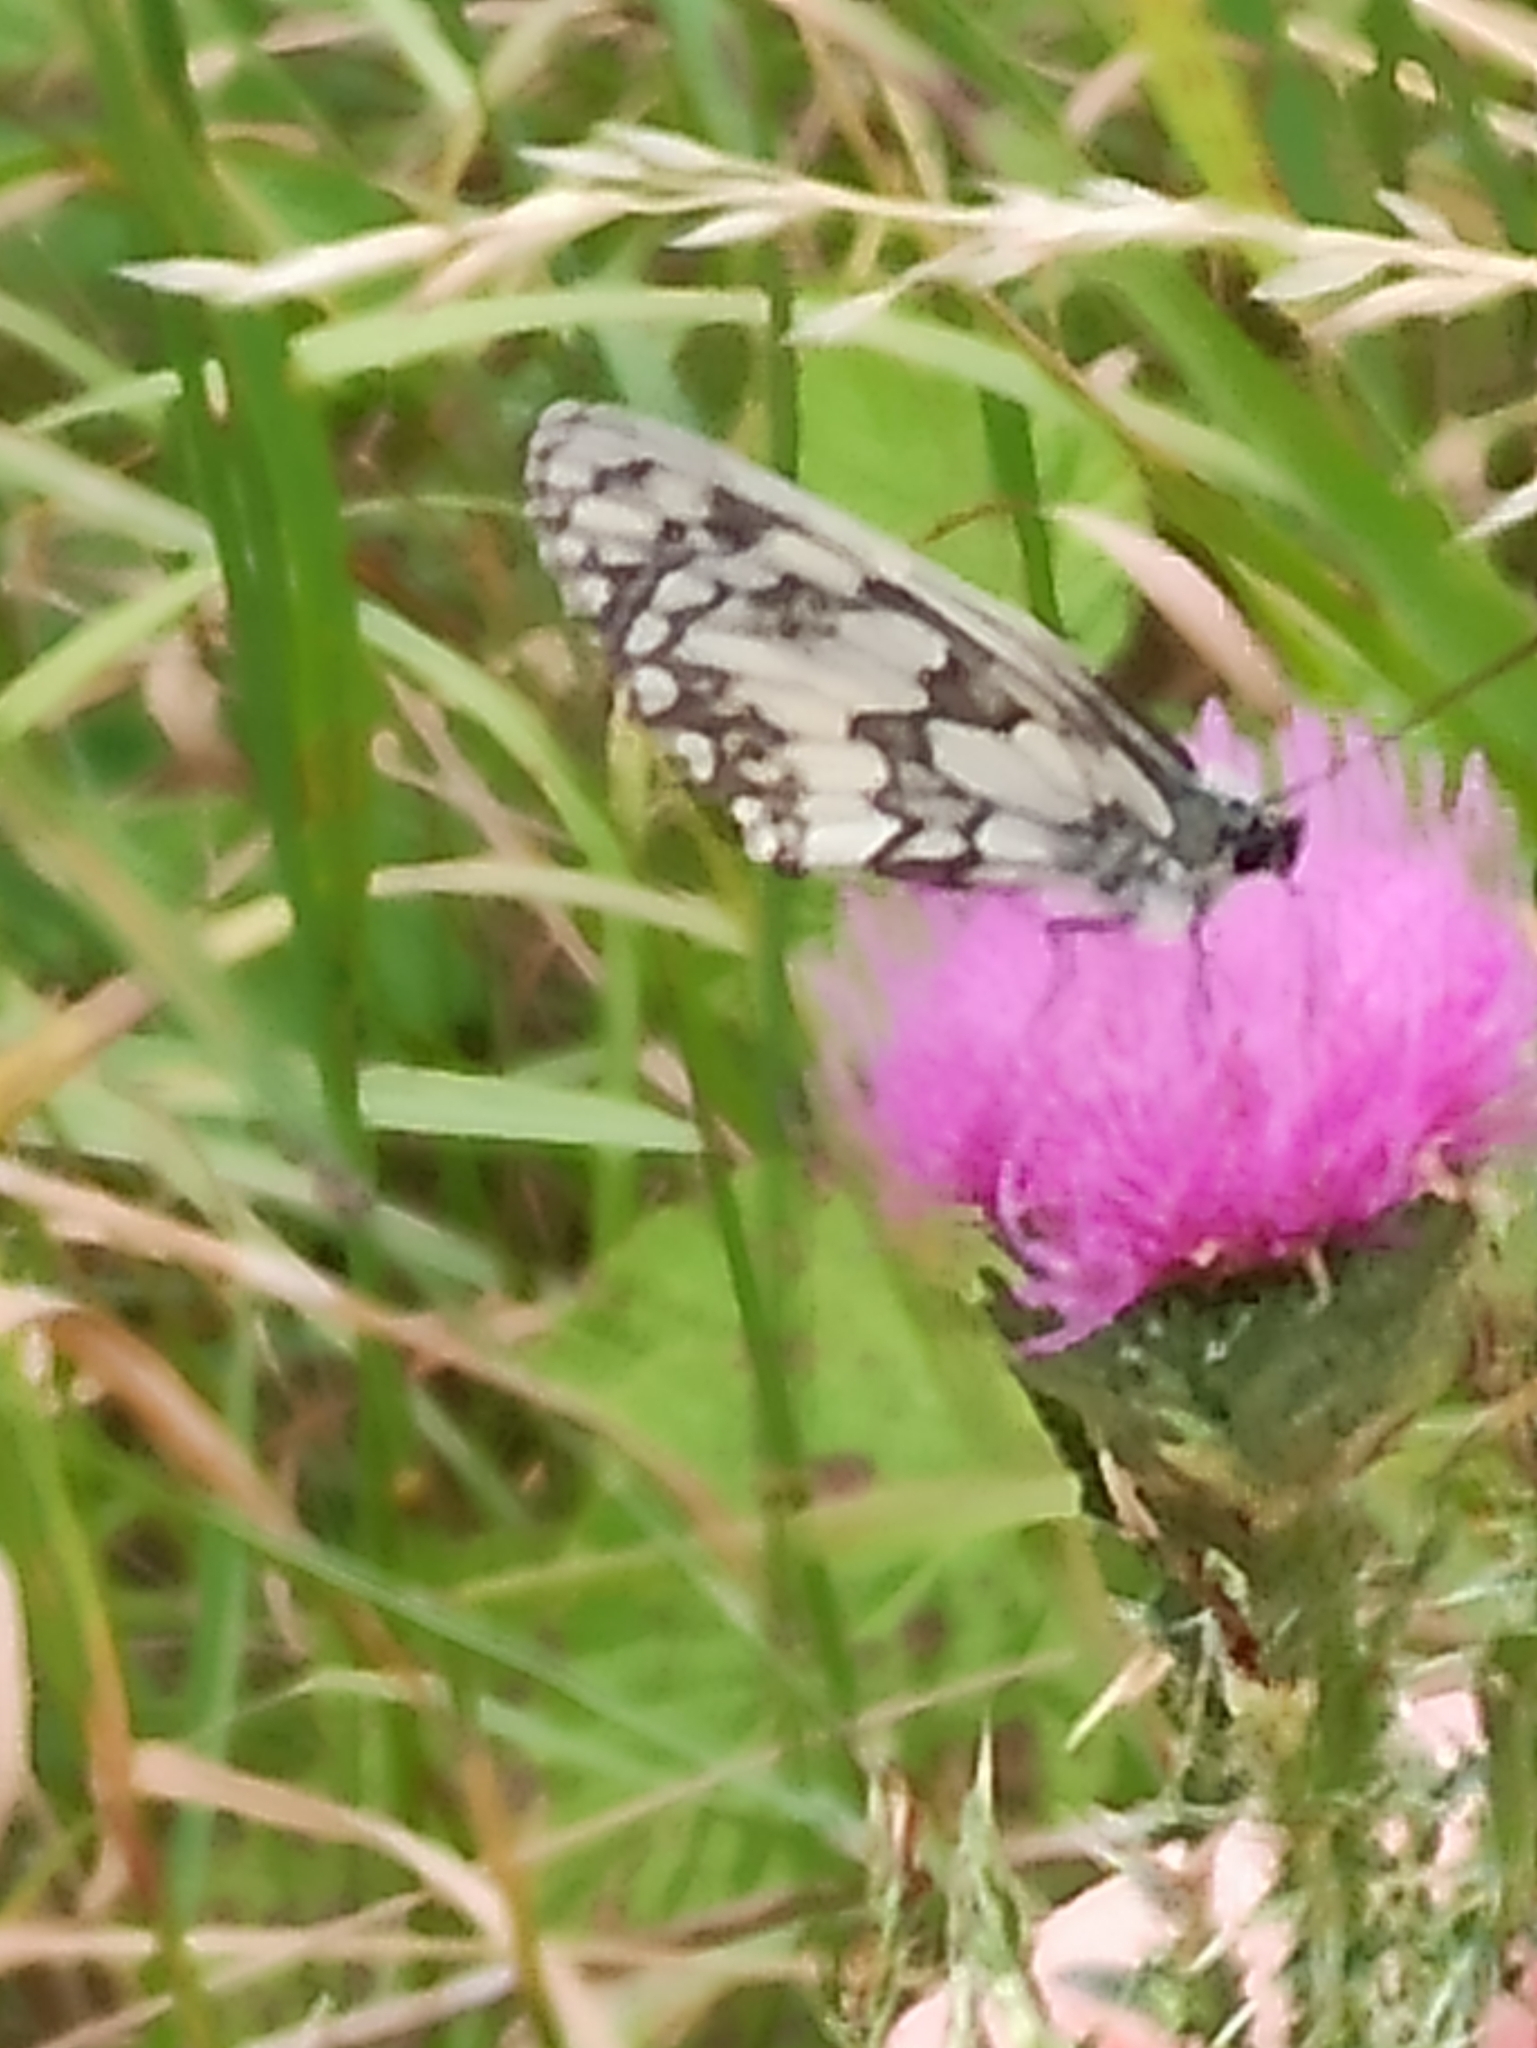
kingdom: Animalia
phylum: Arthropoda
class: Insecta
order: Lepidoptera
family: Nymphalidae
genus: Melanargia
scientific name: Melanargia galathea
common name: Marbled white
